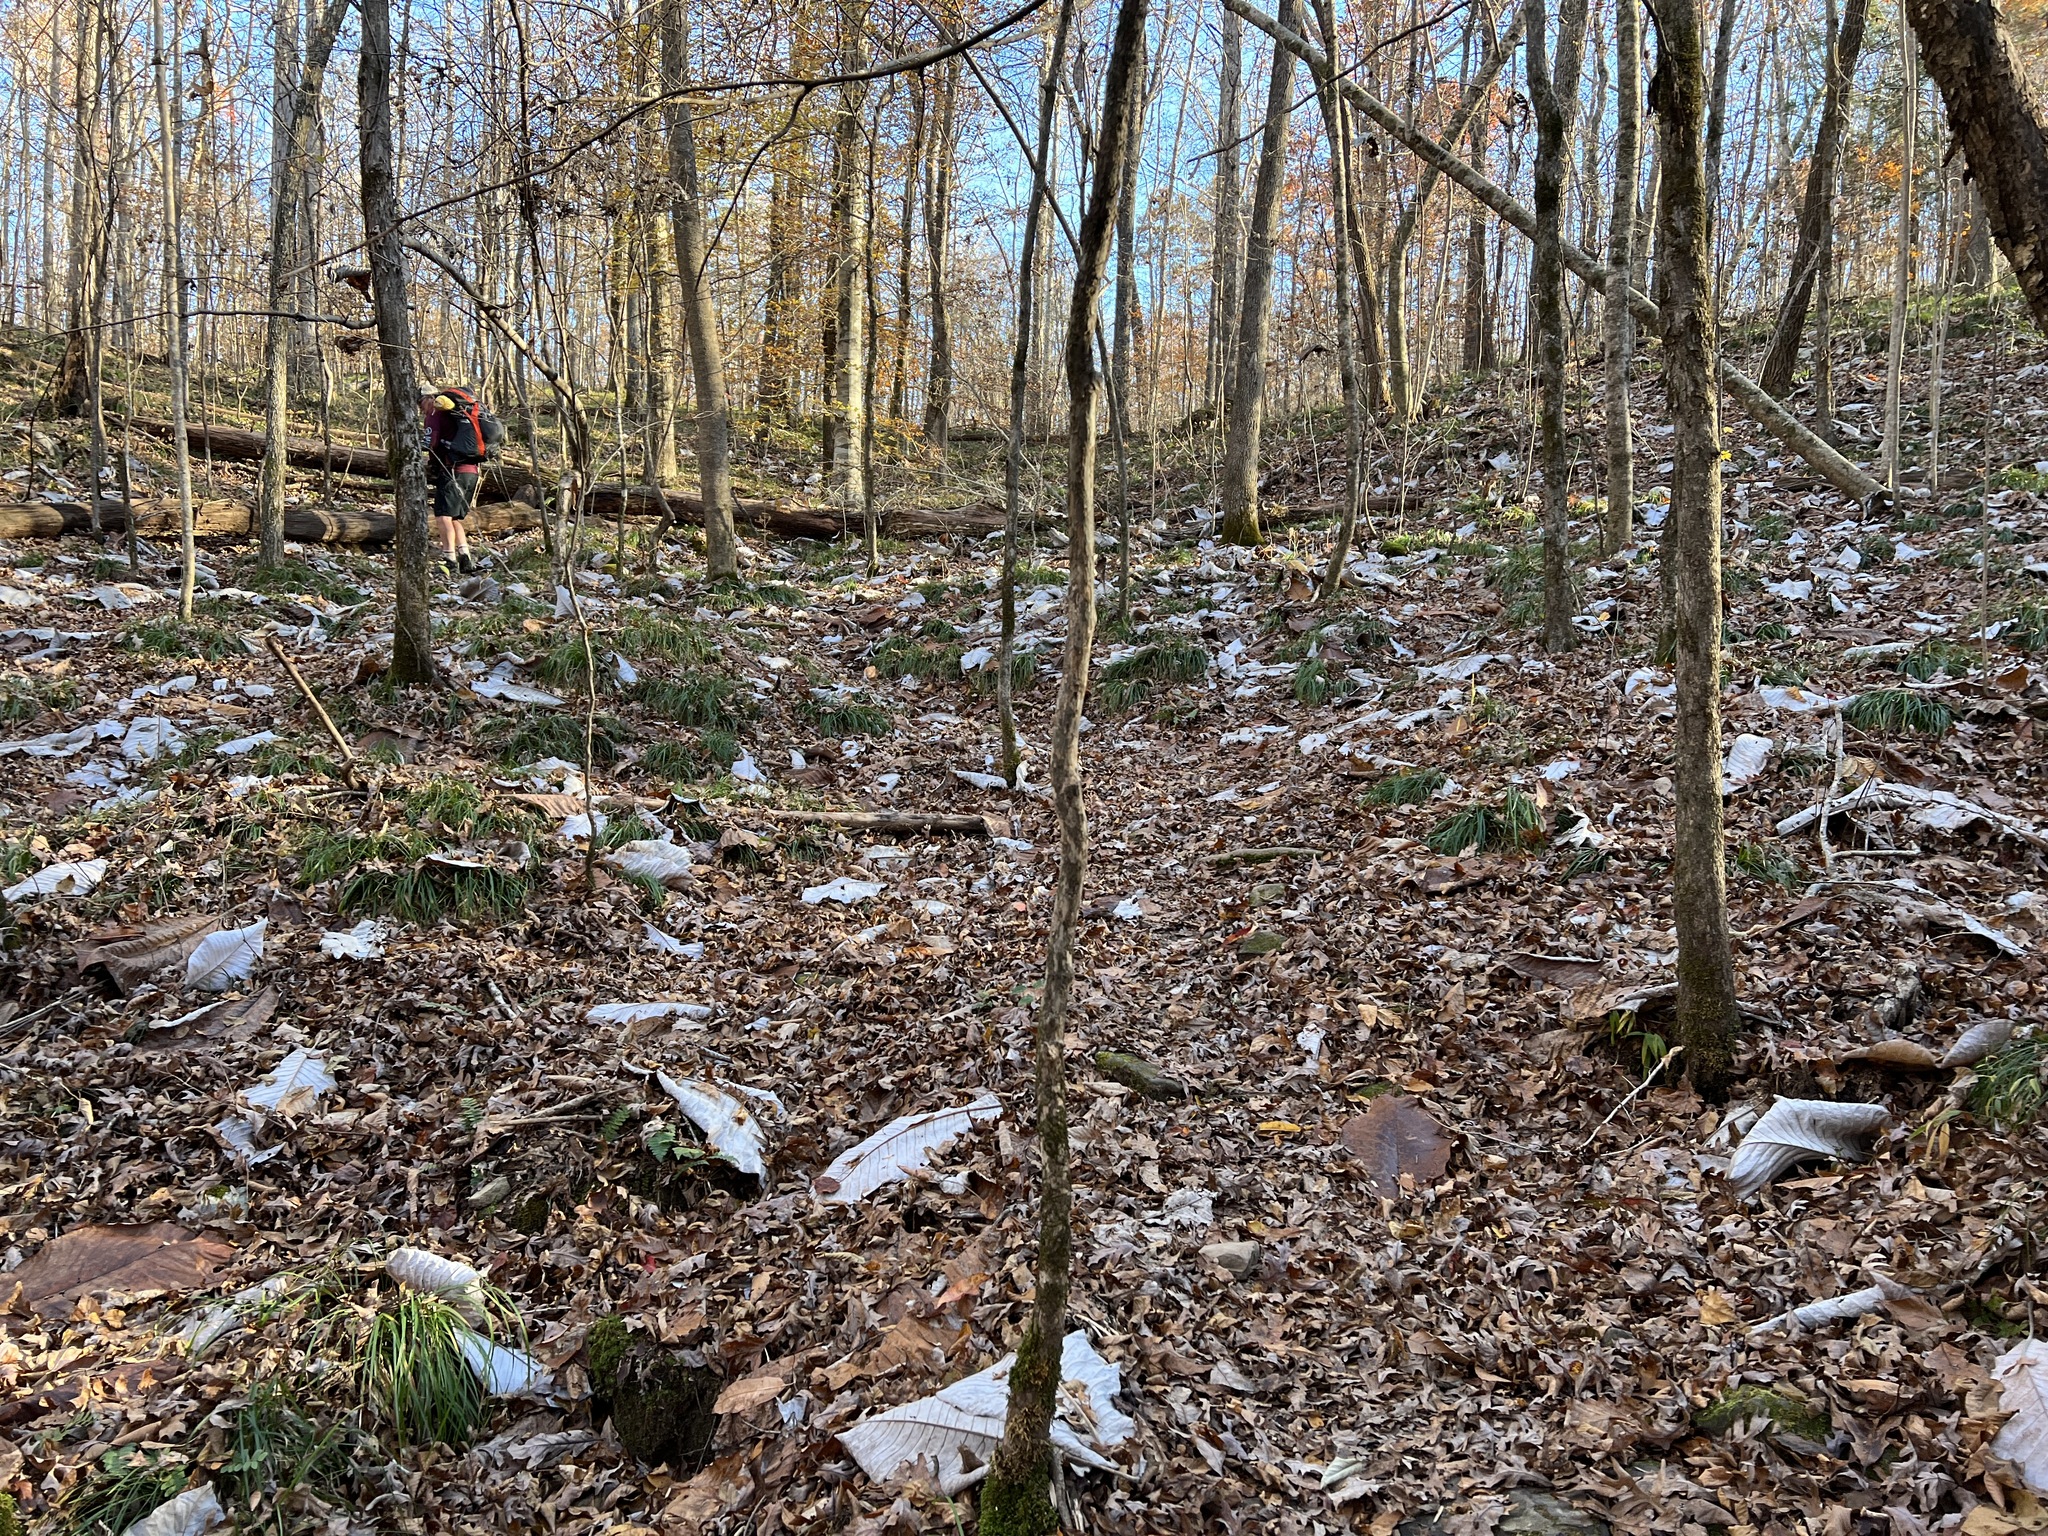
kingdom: Plantae
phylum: Tracheophyta
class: Magnoliopsida
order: Magnoliales
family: Magnoliaceae
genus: Magnolia
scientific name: Magnolia macrophylla
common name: Big-leaf magnolia
